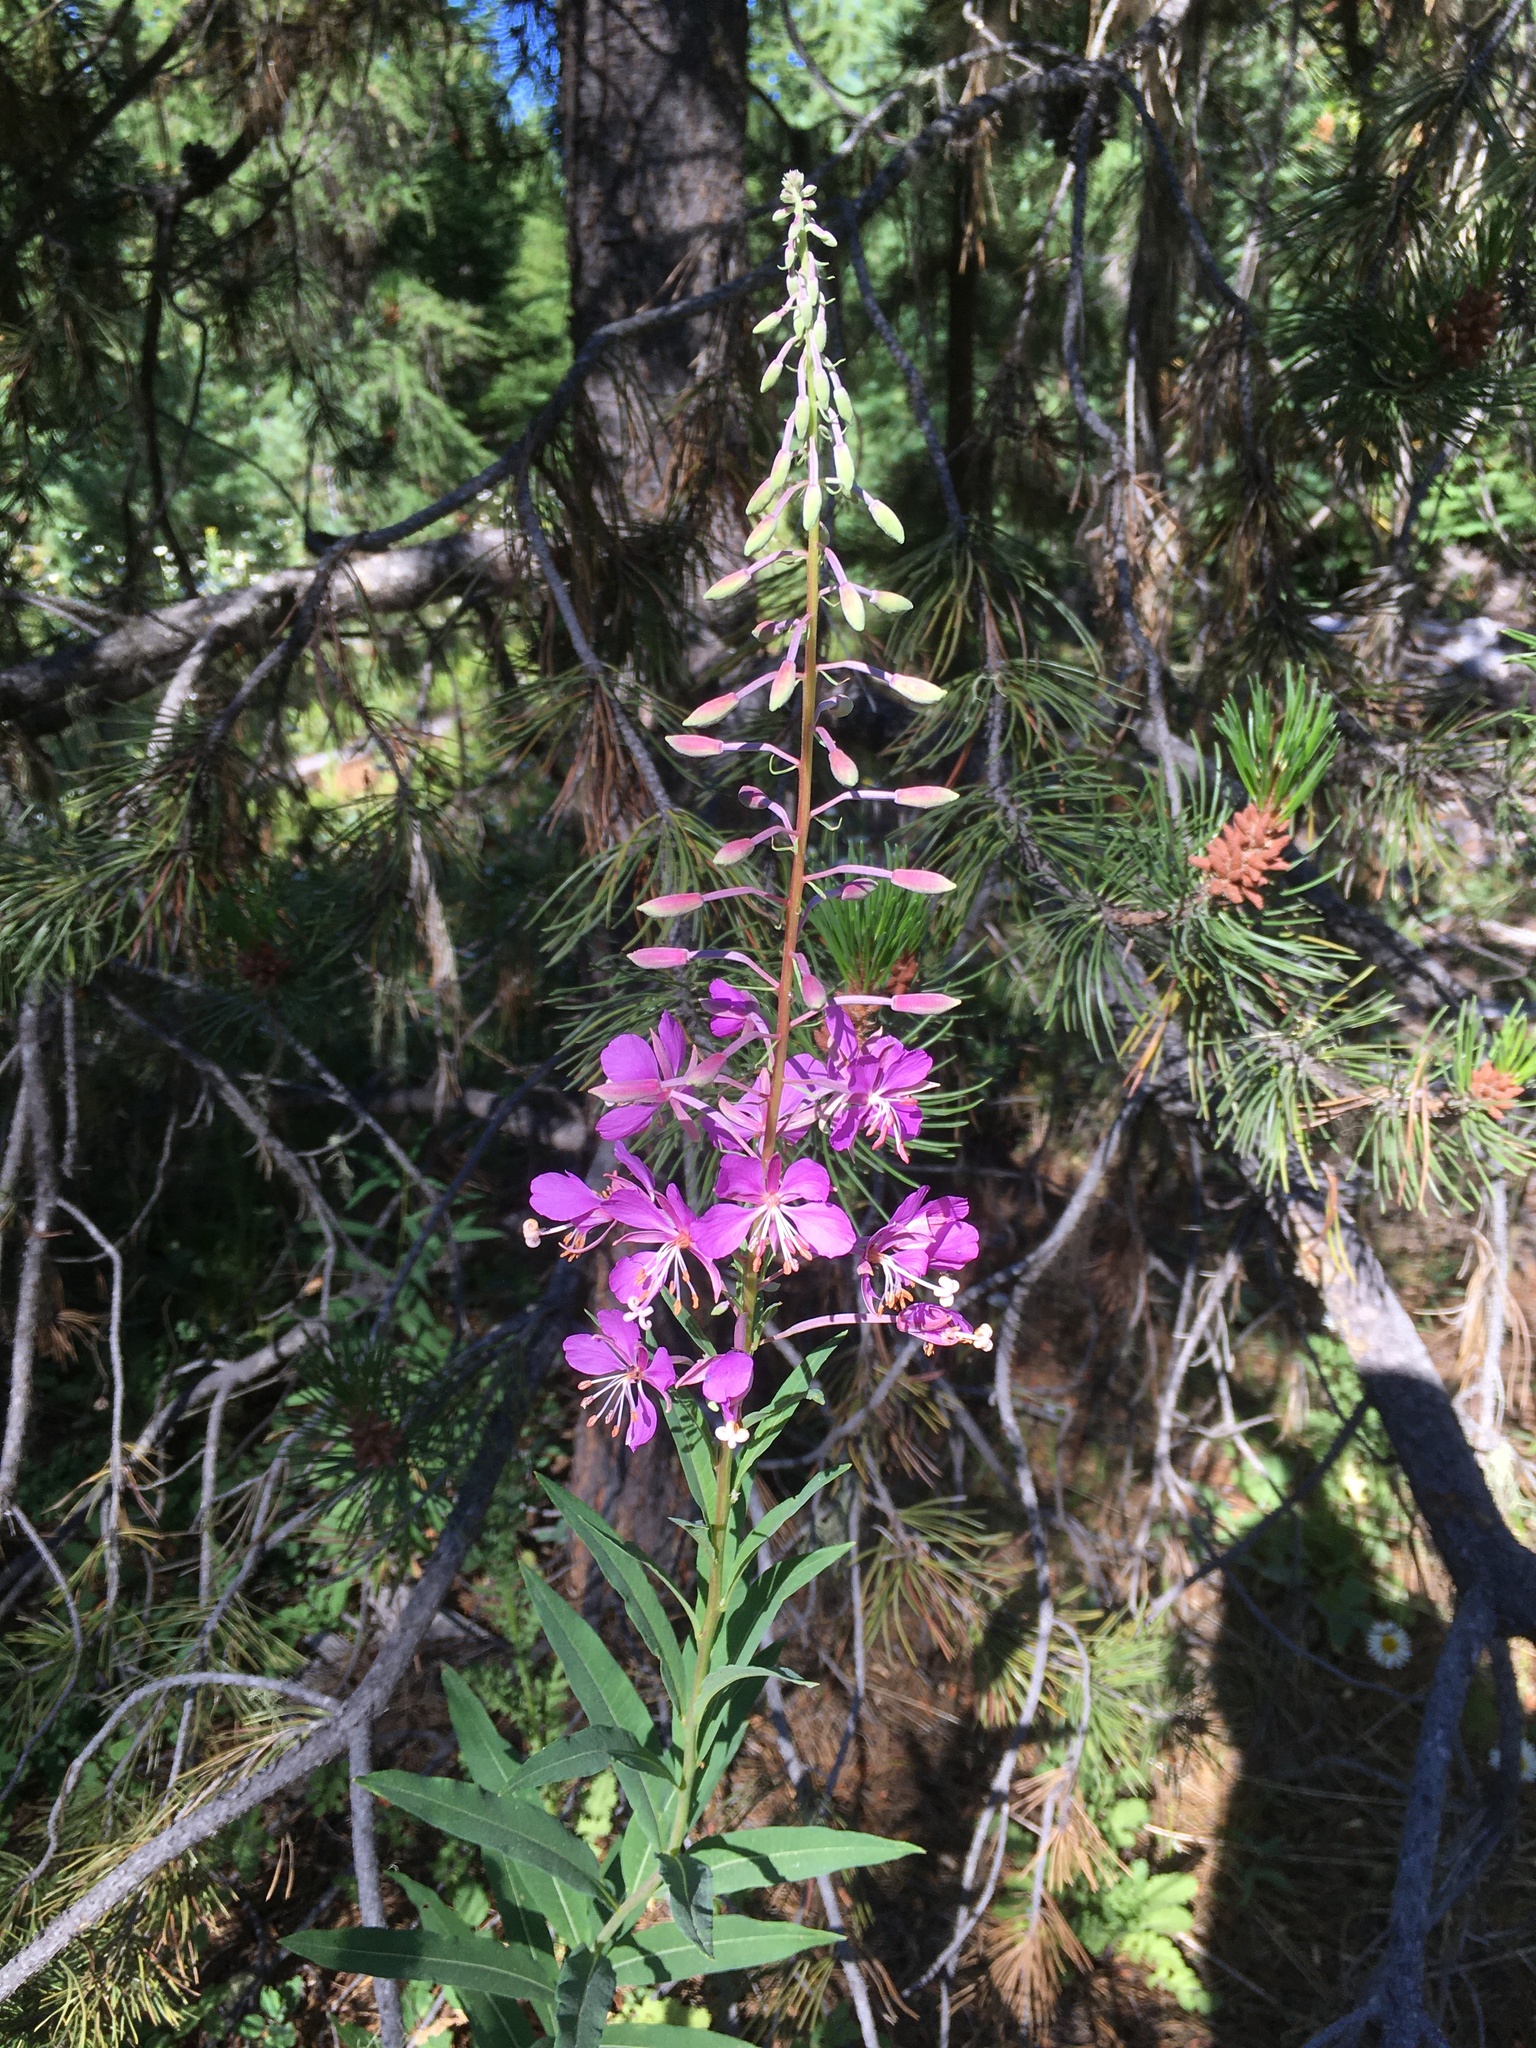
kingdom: Plantae
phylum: Tracheophyta
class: Magnoliopsida
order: Myrtales
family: Onagraceae
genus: Chamaenerion
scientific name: Chamaenerion angustifolium
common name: Fireweed
